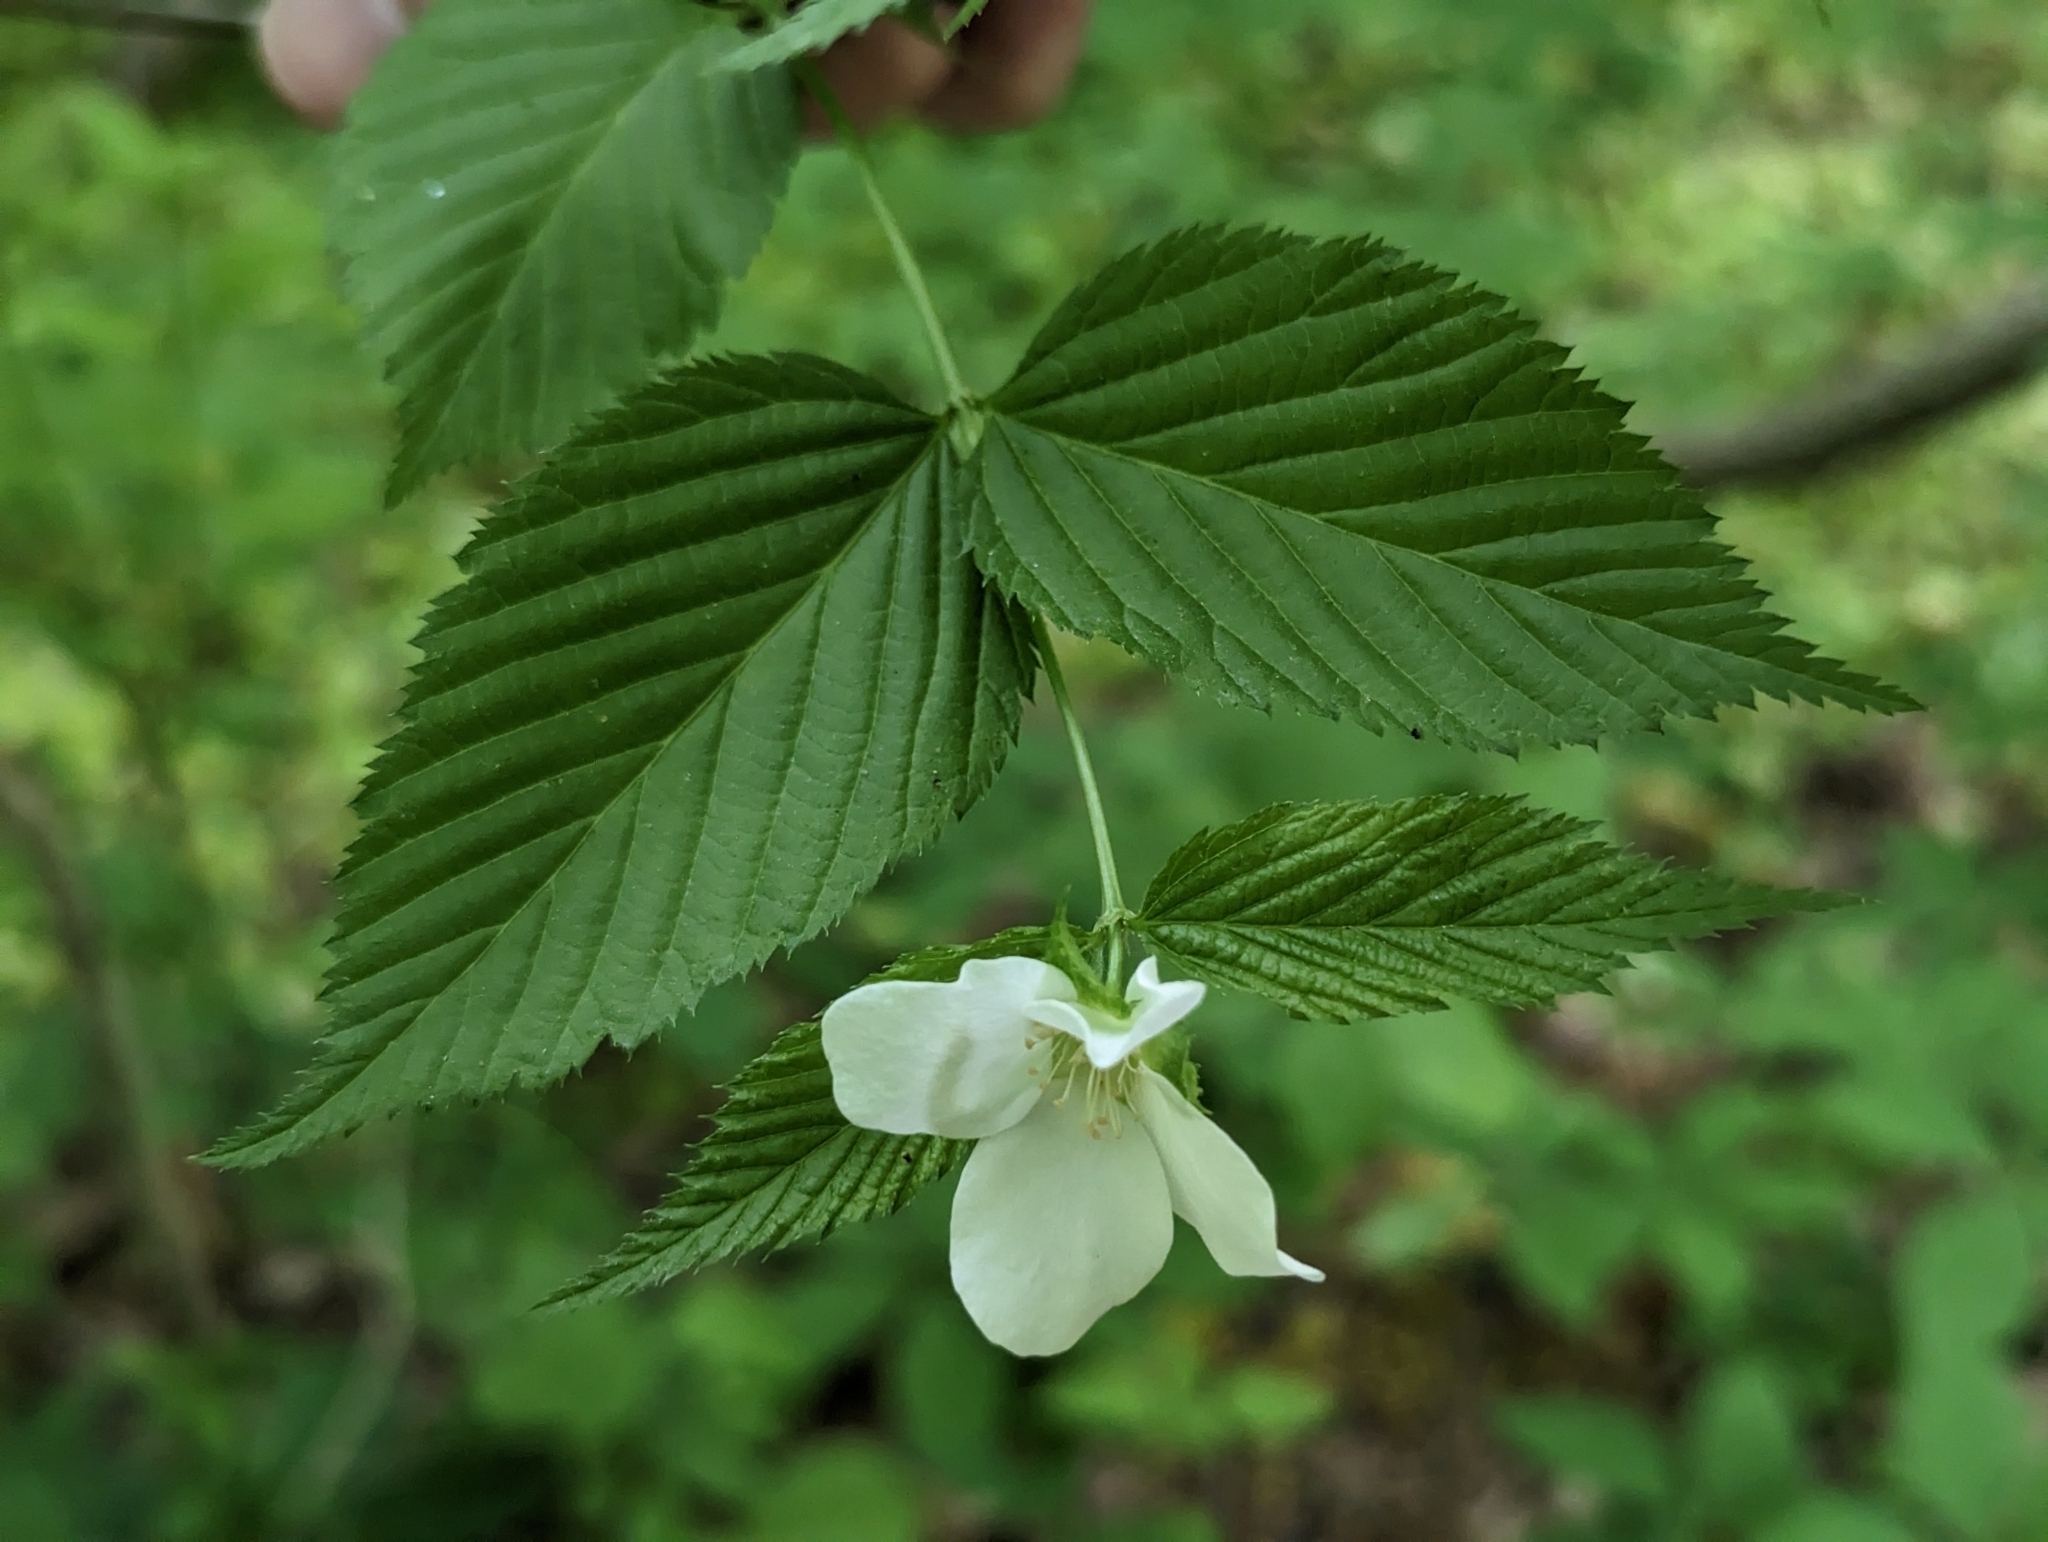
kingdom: Plantae
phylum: Tracheophyta
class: Magnoliopsida
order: Rosales
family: Rosaceae
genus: Rhodotypos
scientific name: Rhodotypos scandens
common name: Jetbead
